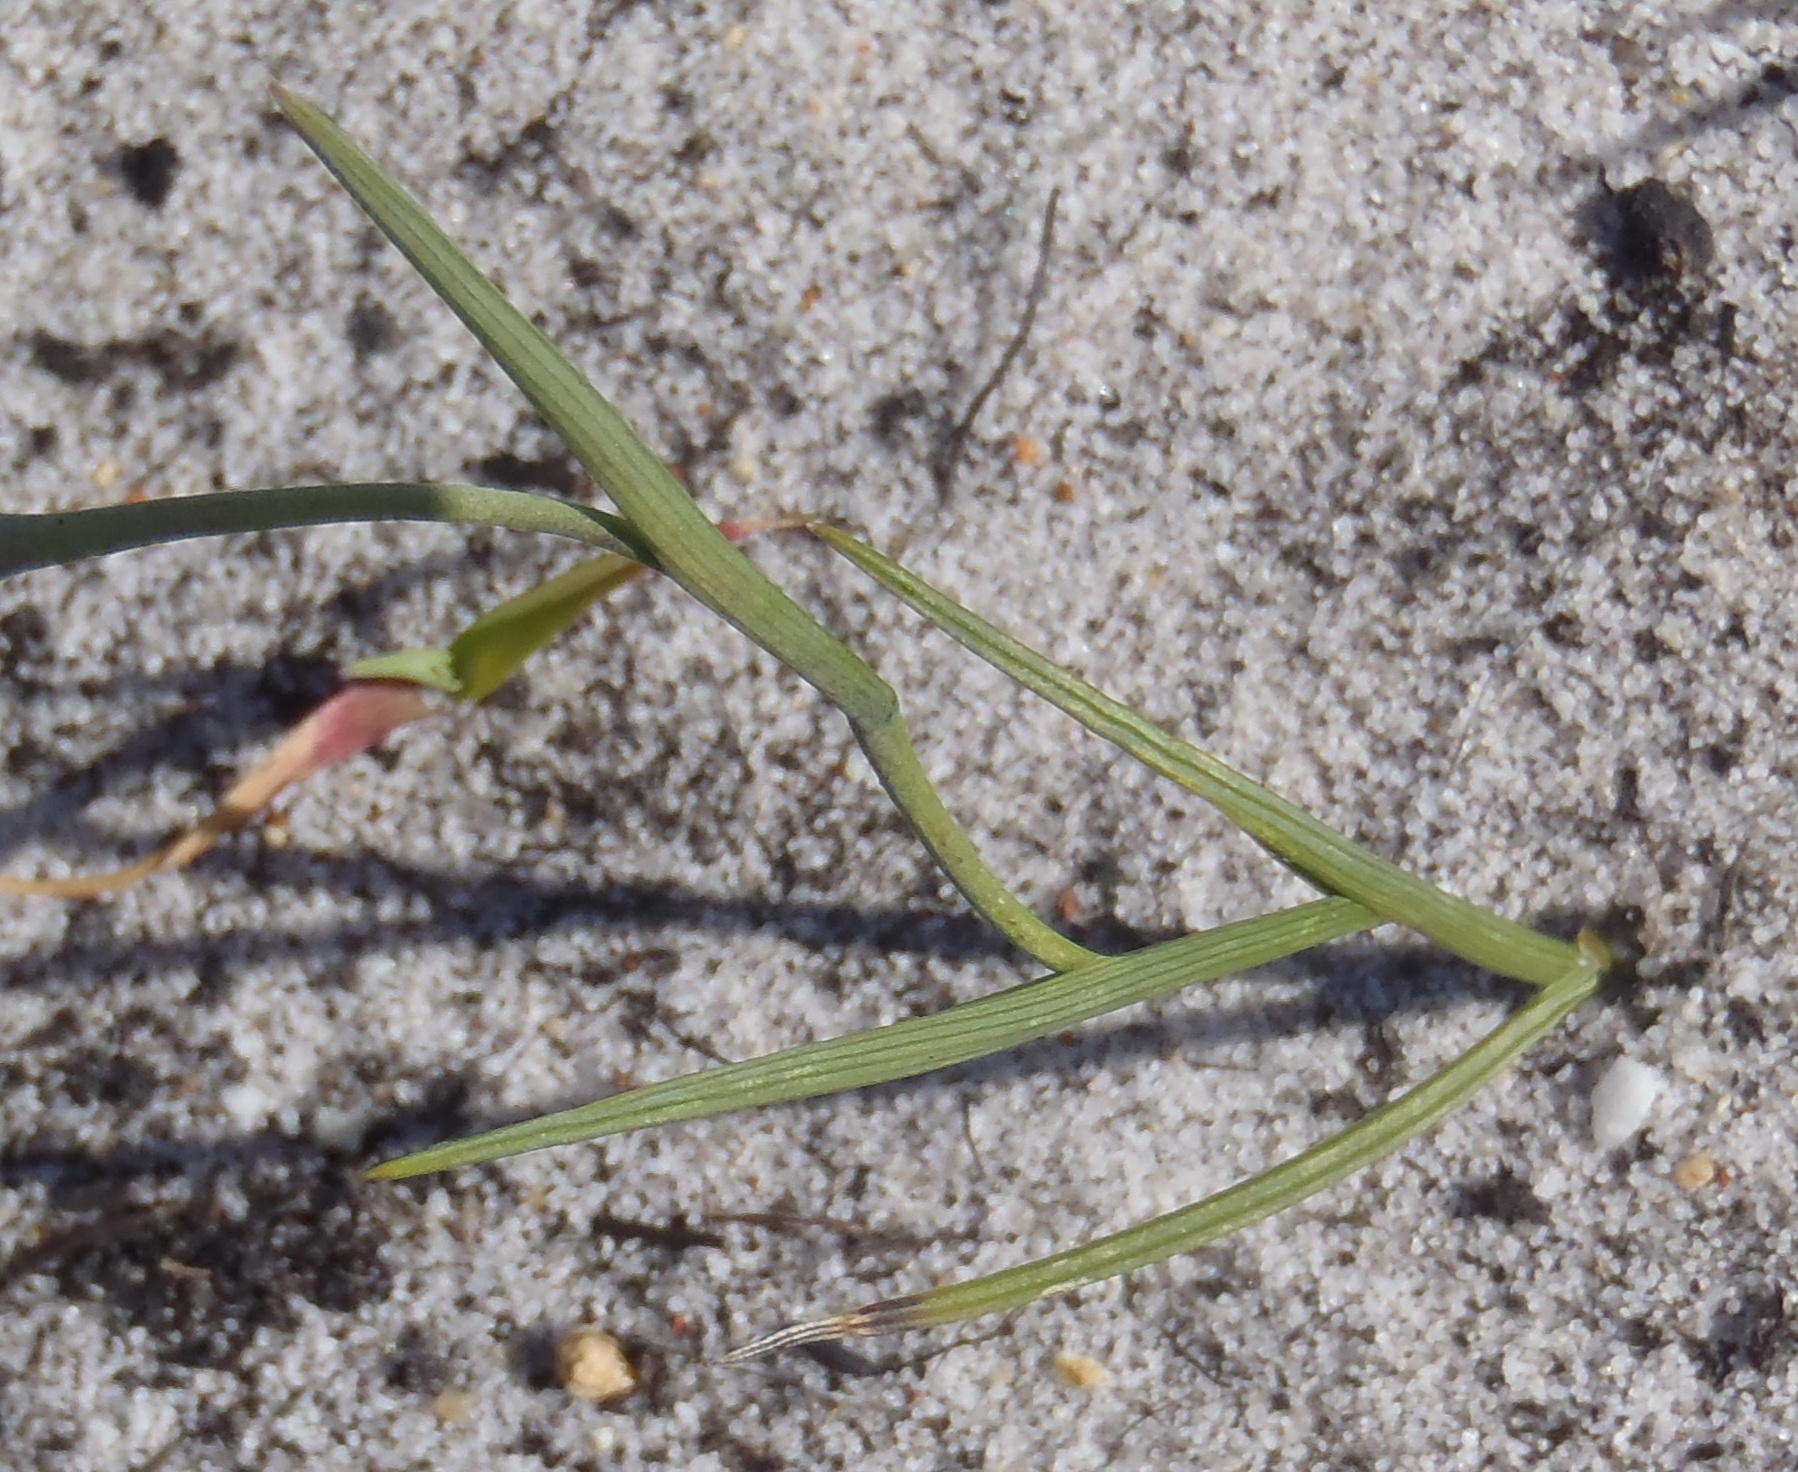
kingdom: Plantae
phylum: Tracheophyta
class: Liliopsida
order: Asparagales
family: Iridaceae
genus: Gladiolus
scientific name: Gladiolus debilis
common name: Painted-lady
